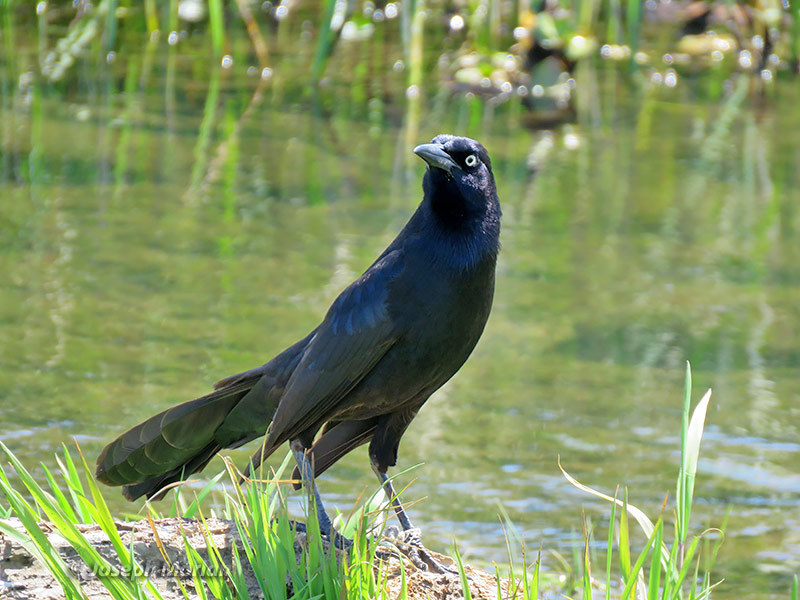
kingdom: Animalia
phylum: Chordata
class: Aves
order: Passeriformes
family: Icteridae
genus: Quiscalus
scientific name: Quiscalus mexicanus
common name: Great-tailed grackle
